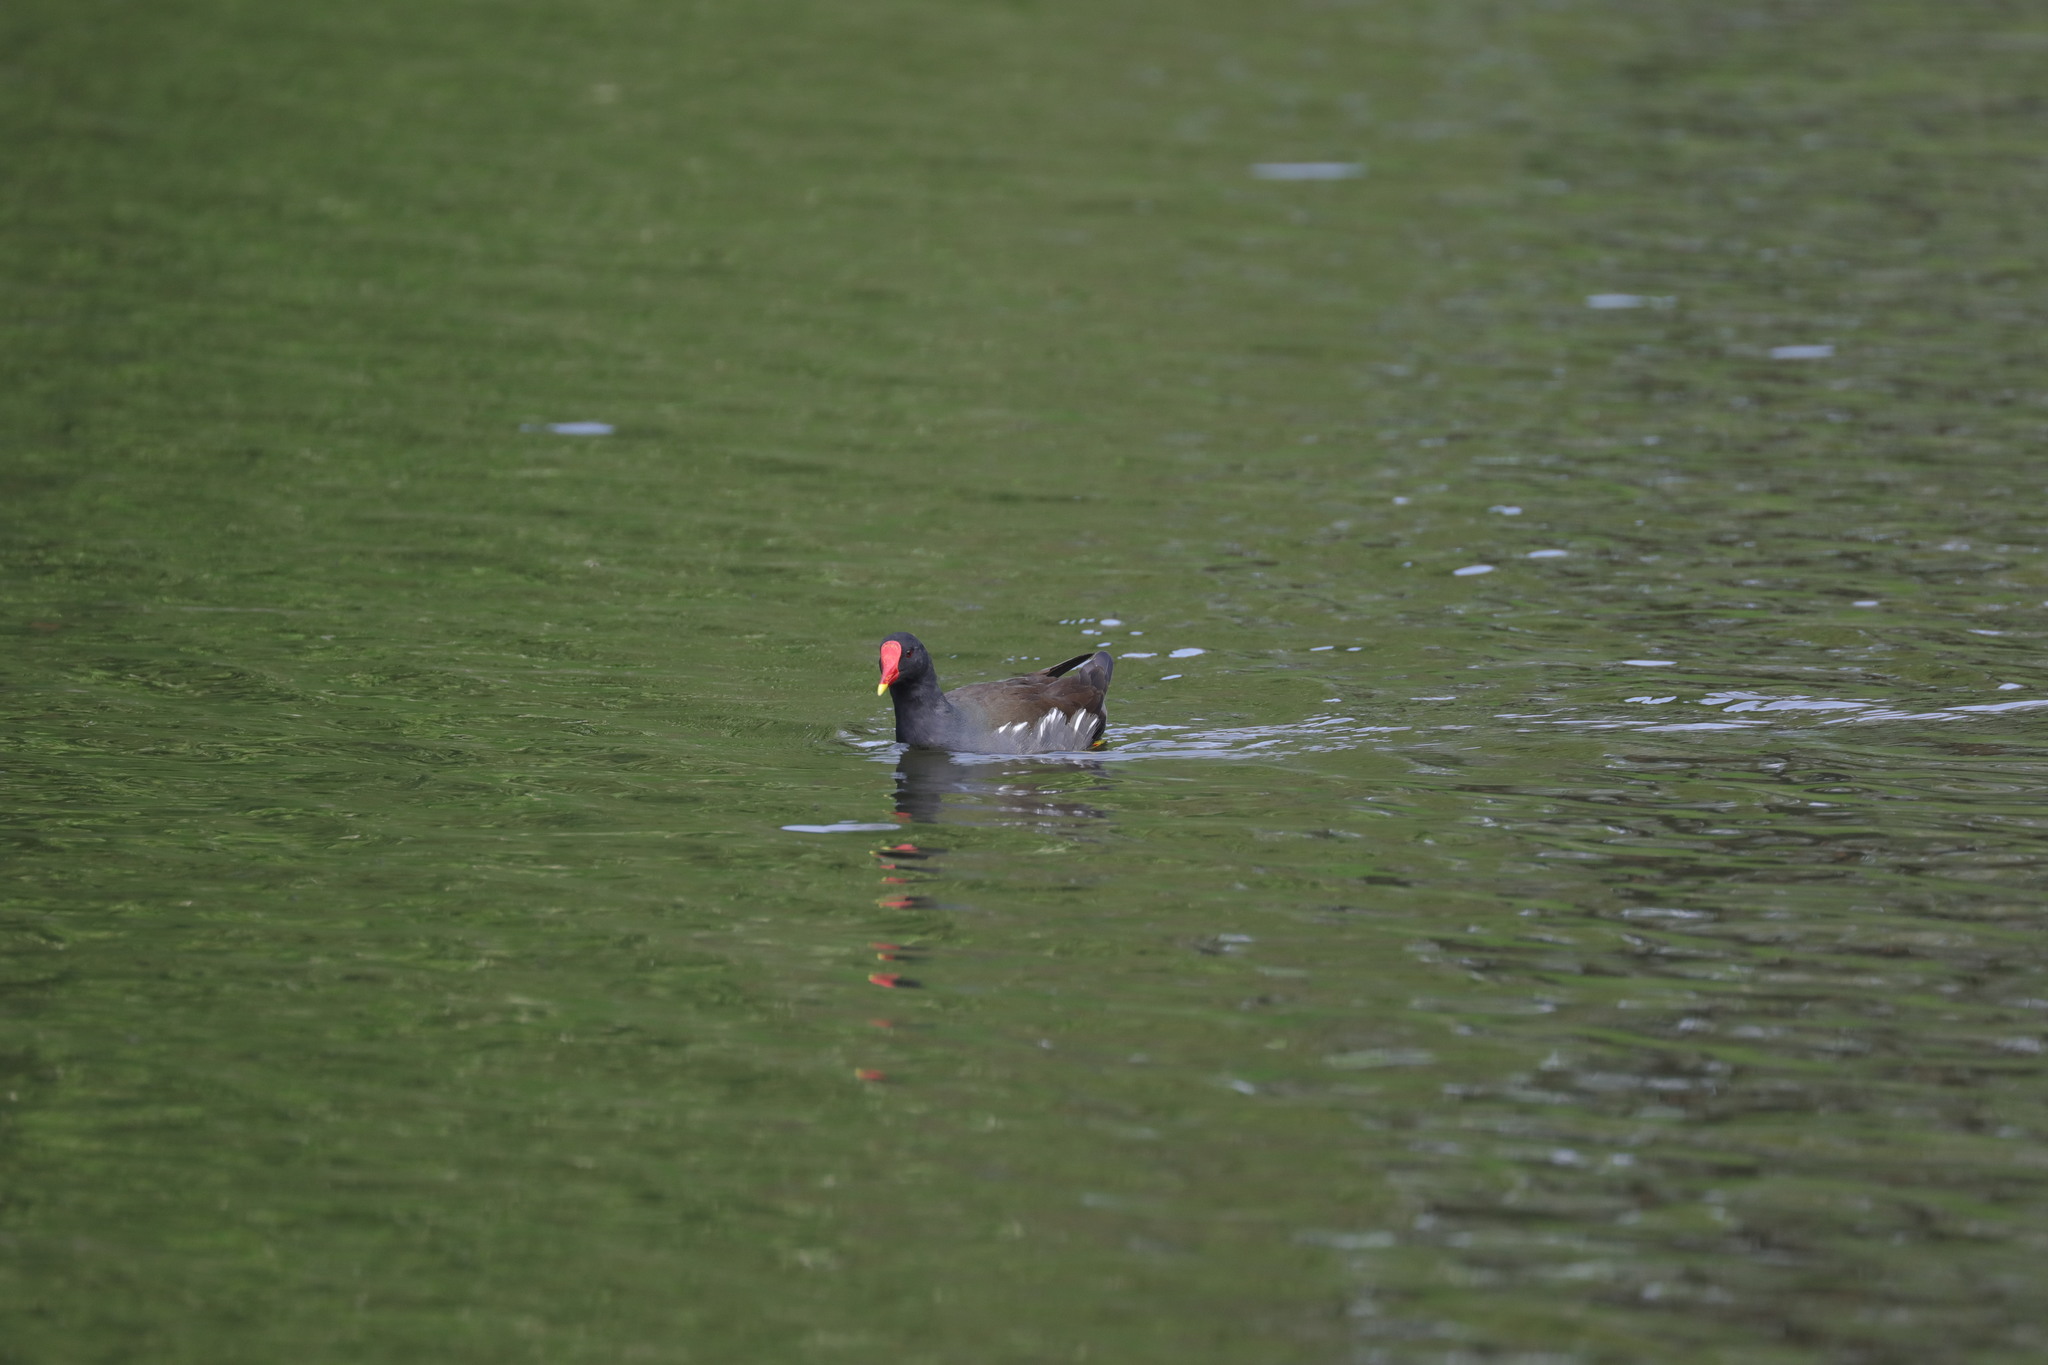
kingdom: Animalia
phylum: Chordata
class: Aves
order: Gruiformes
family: Rallidae
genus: Gallinula
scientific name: Gallinula chloropus
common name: Common moorhen
